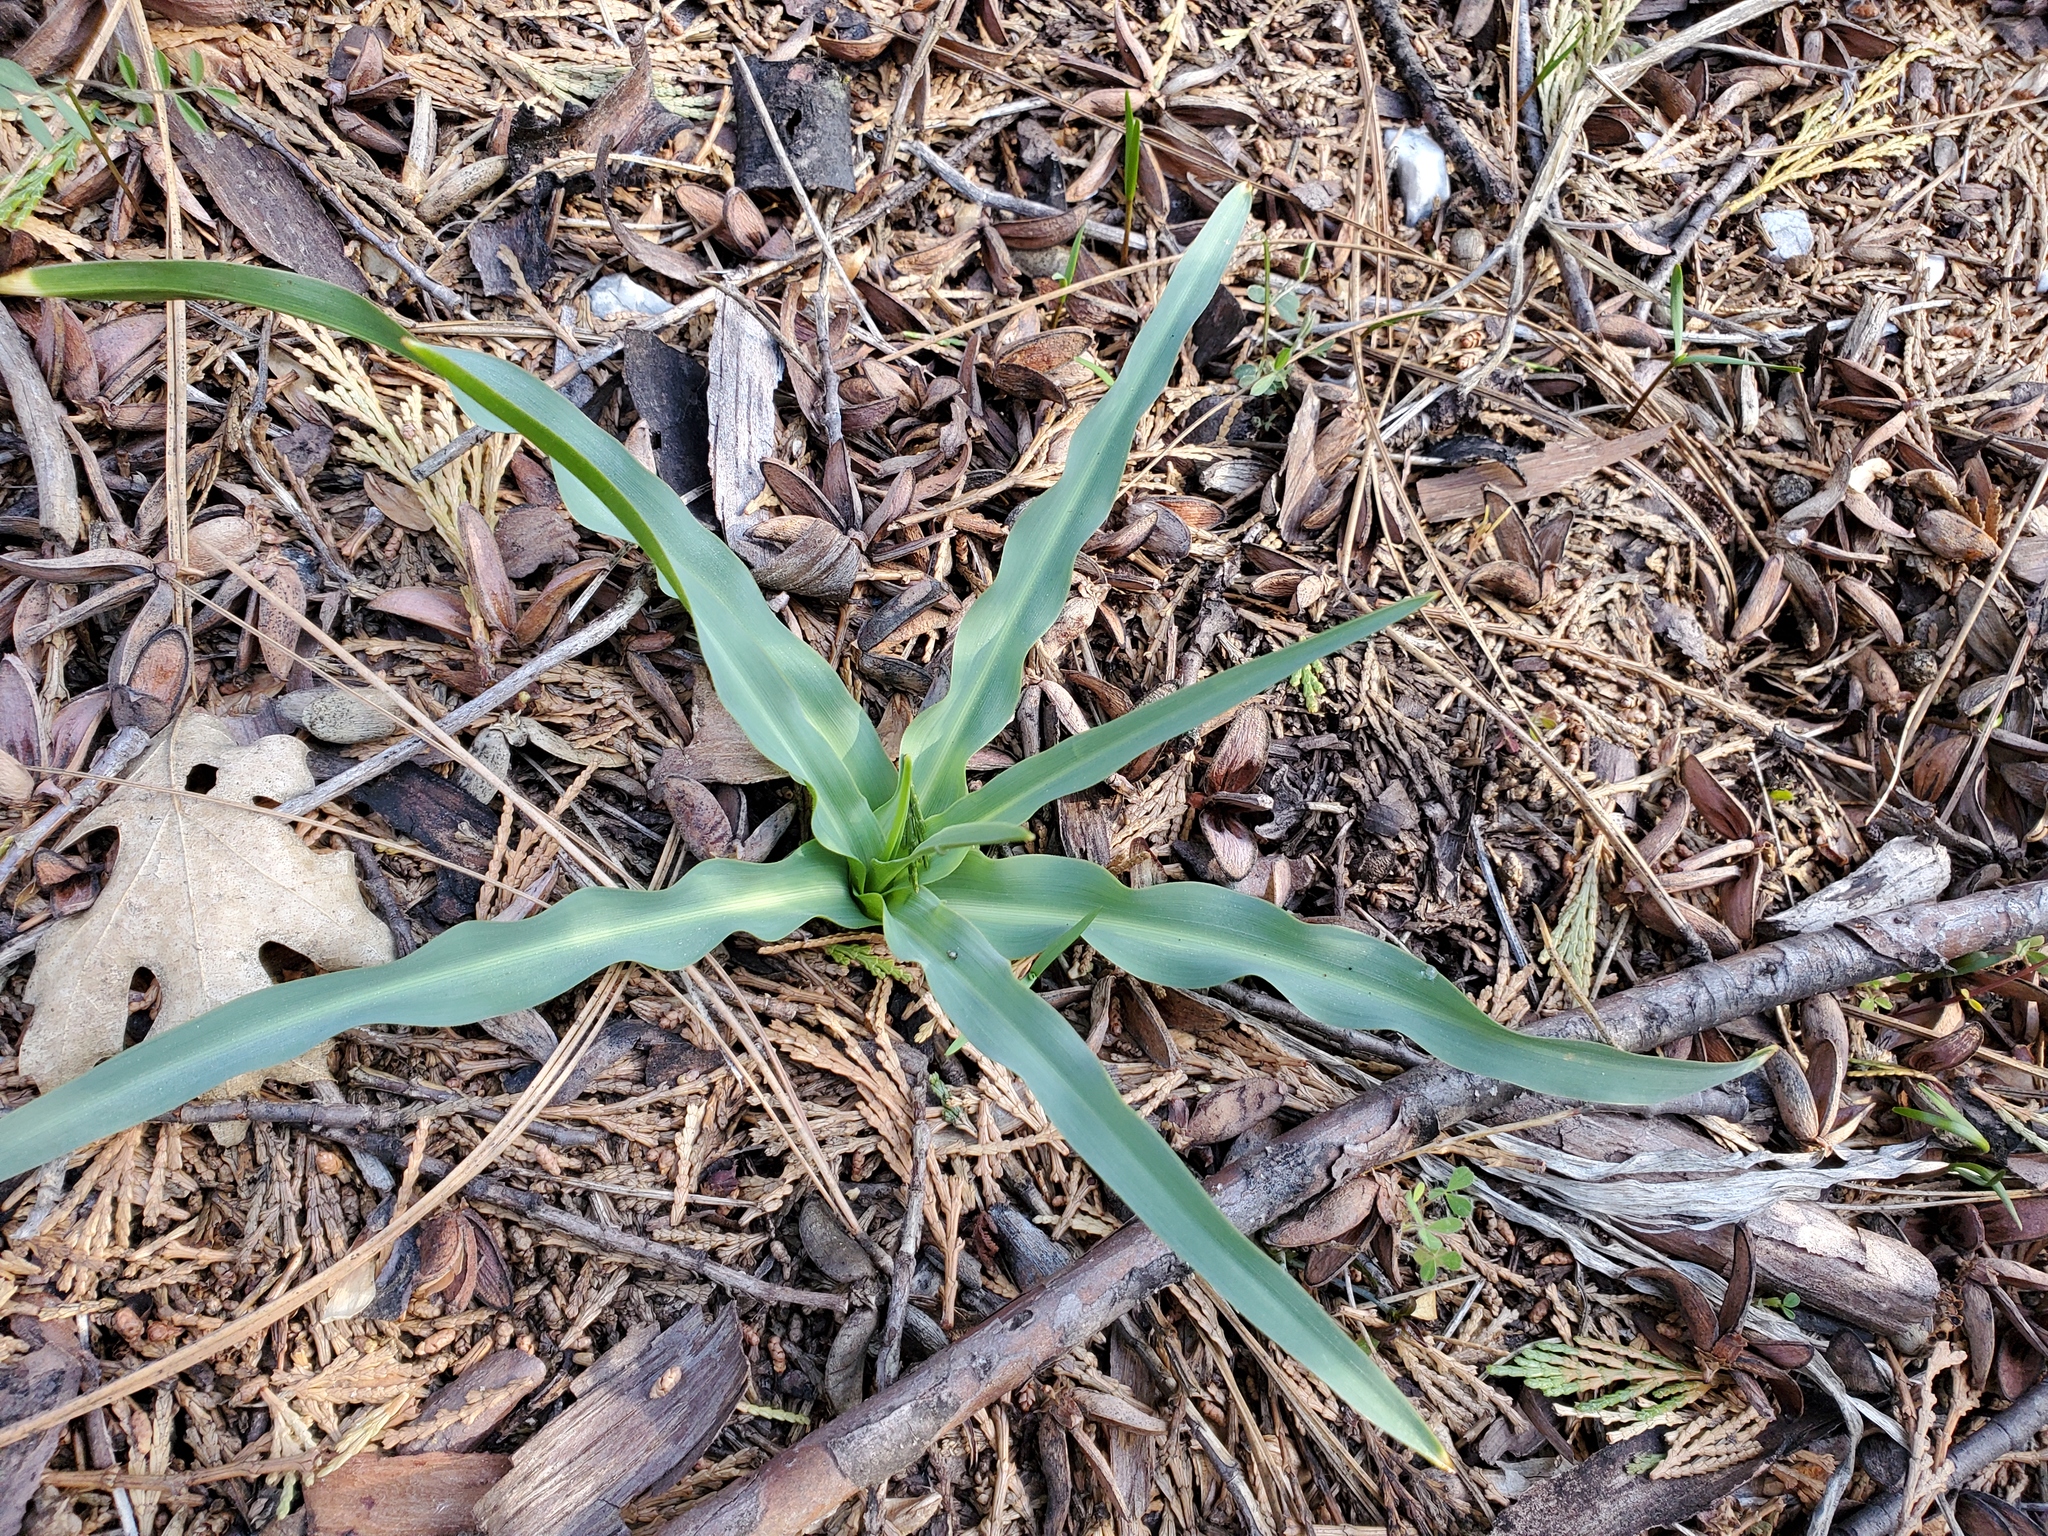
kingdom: Plantae
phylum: Tracheophyta
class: Liliopsida
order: Asparagales
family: Asparagaceae
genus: Chlorogalum
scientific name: Chlorogalum pomeridianum
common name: Amole
